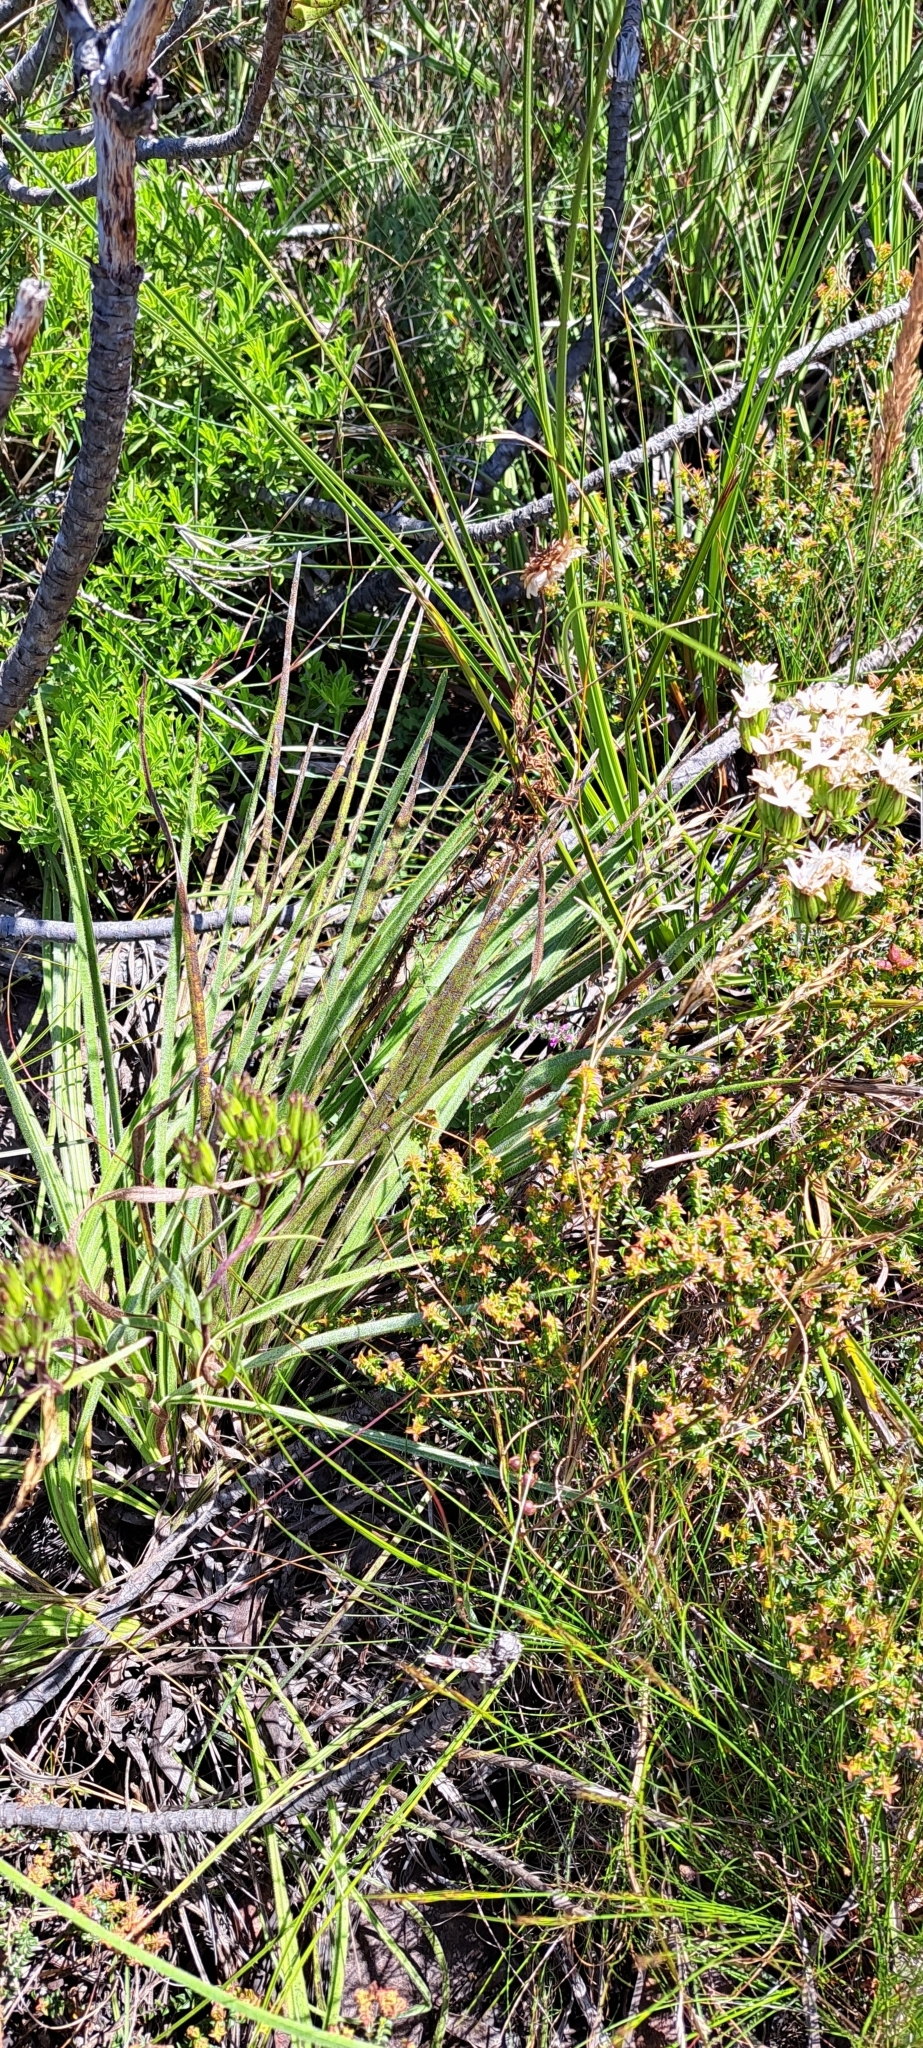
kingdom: Plantae
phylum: Tracheophyta
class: Magnoliopsida
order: Asterales
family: Asteraceae
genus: Corymbium
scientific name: Corymbium villosum
